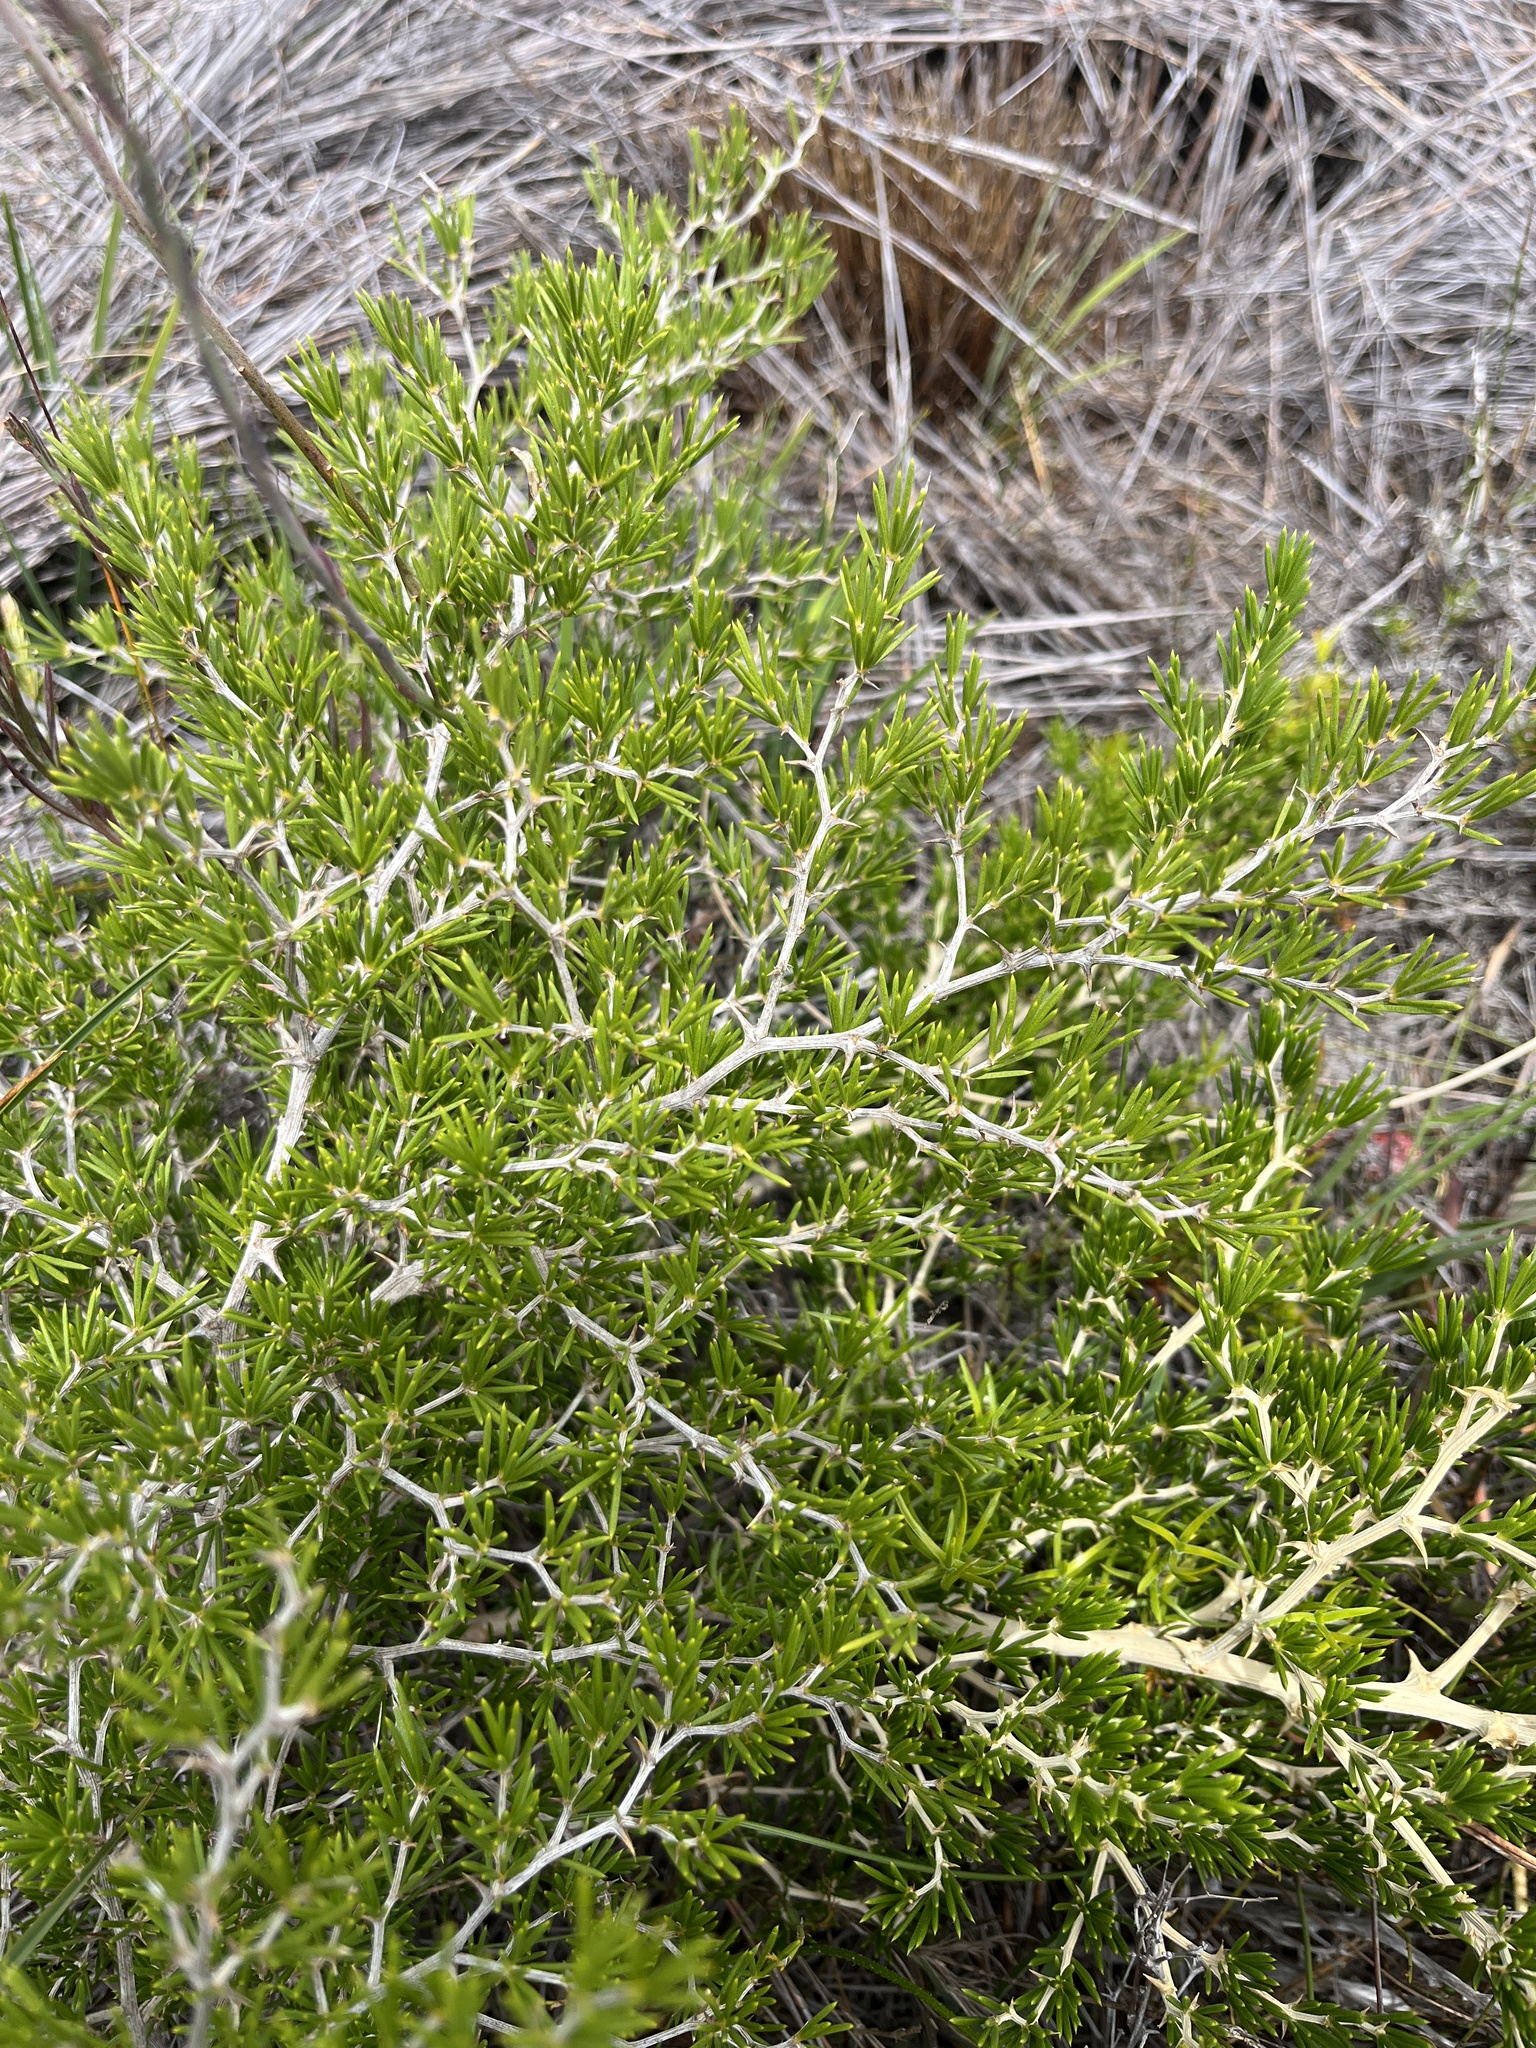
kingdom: Plantae
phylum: Tracheophyta
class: Liliopsida
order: Asparagales
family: Asparagaceae
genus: Asparagus
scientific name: Asparagus lignosus
